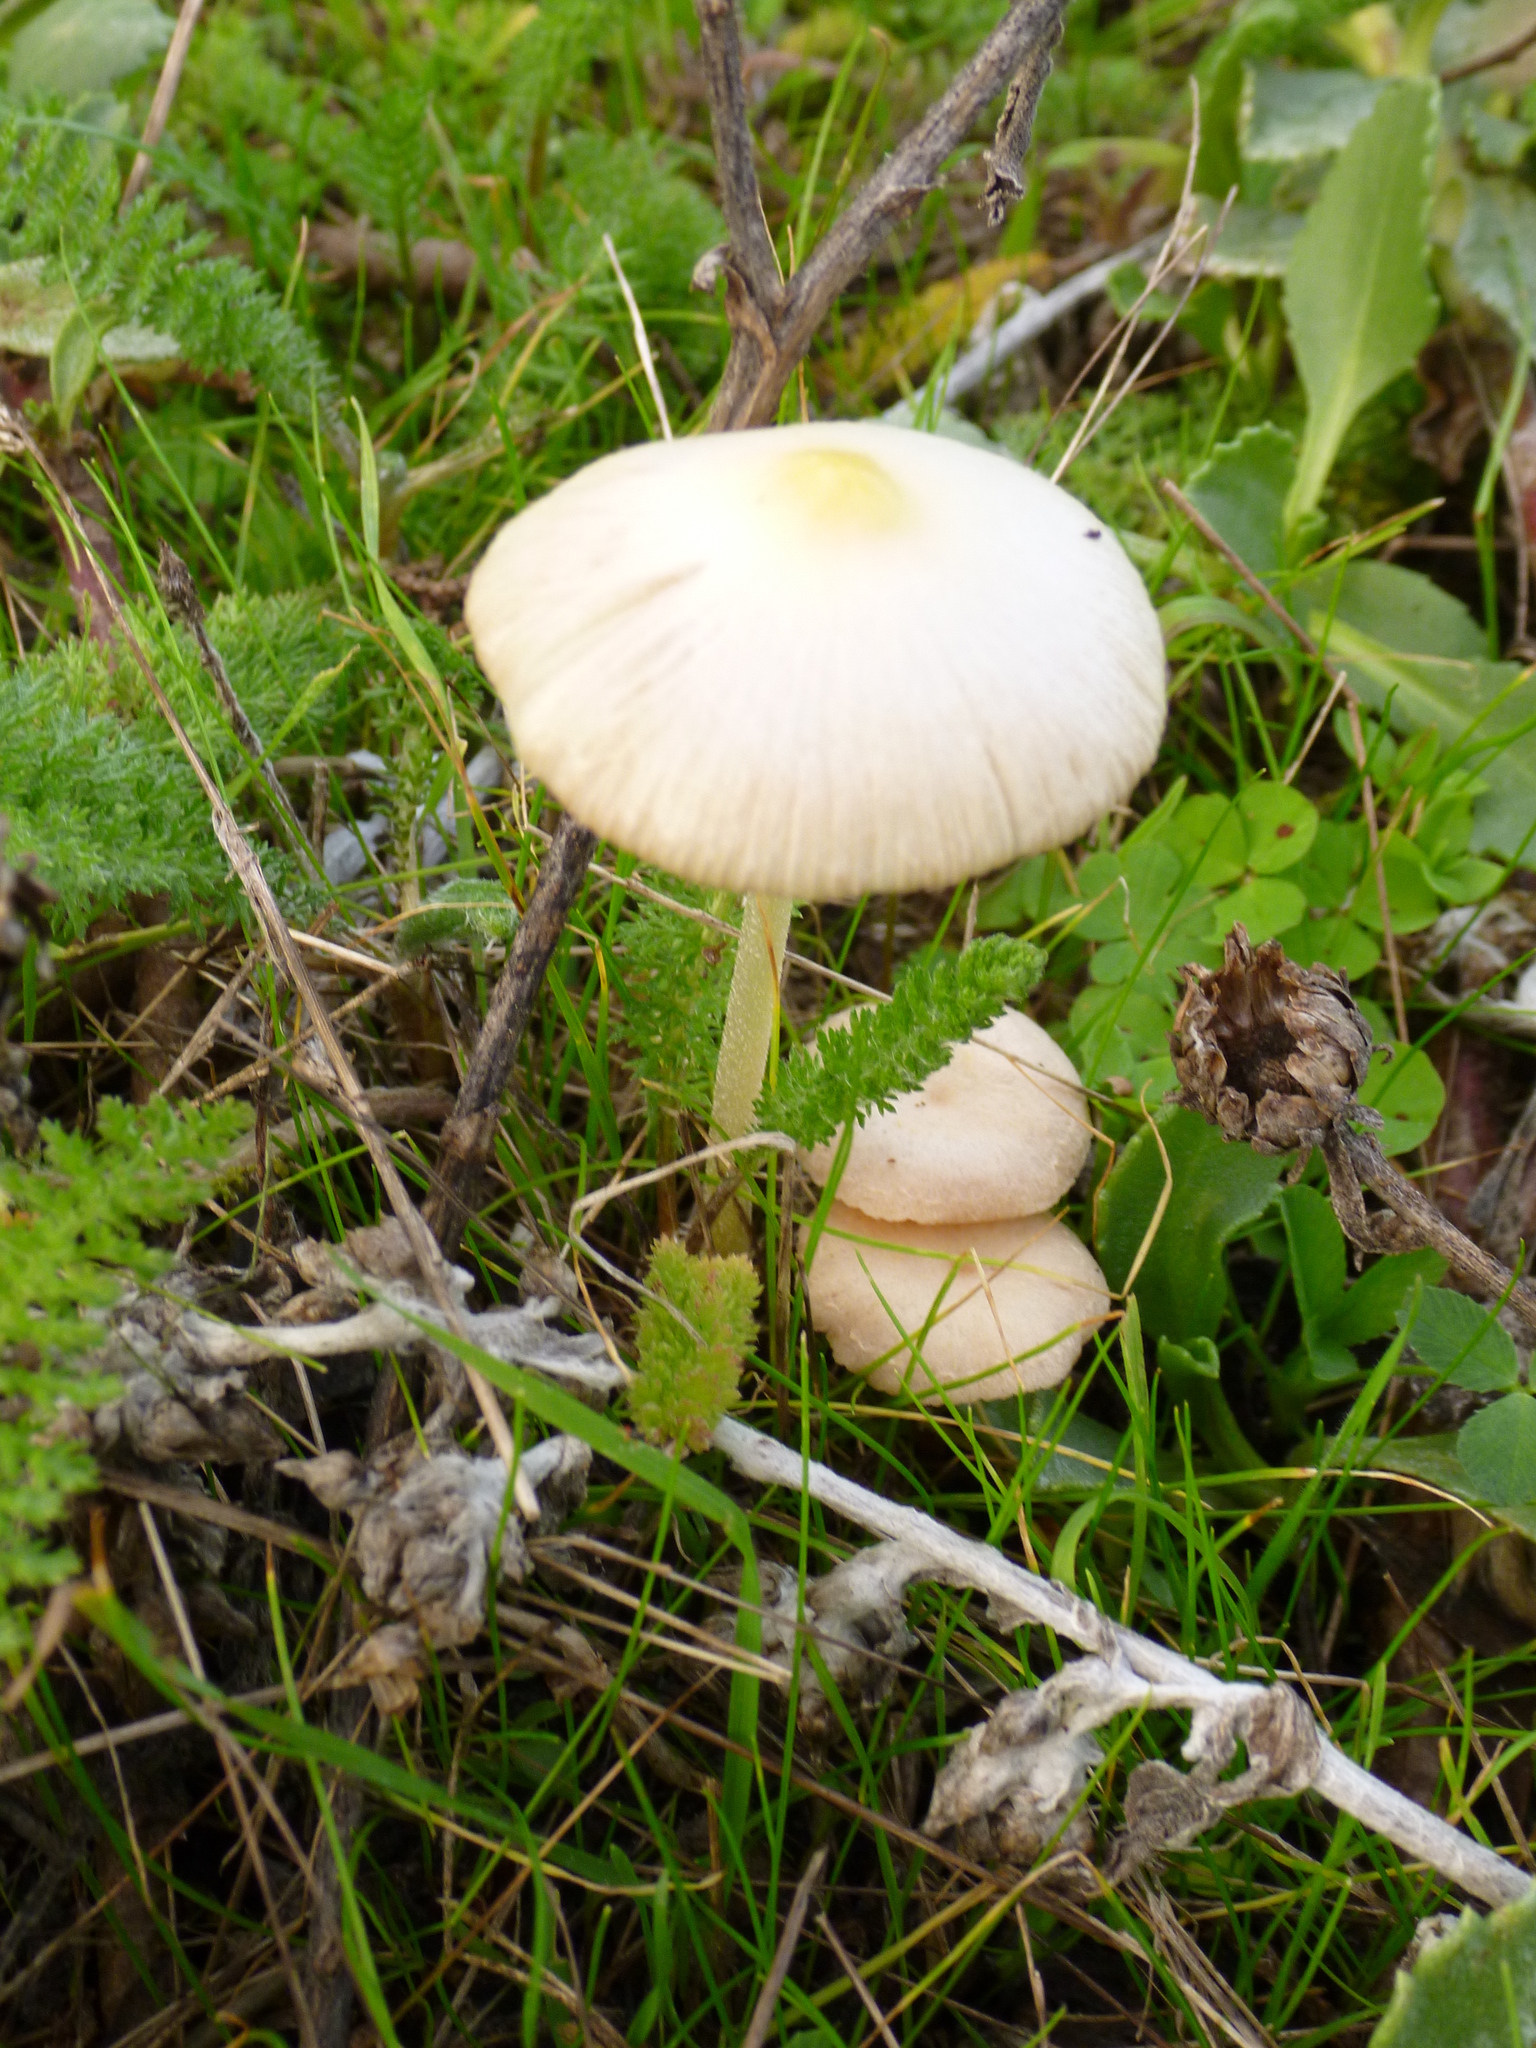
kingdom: Fungi
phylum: Basidiomycota
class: Agaricomycetes
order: Agaricales
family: Bolbitiaceae
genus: Bolbitius
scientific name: Bolbitius titubans
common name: Yellow fieldcap
